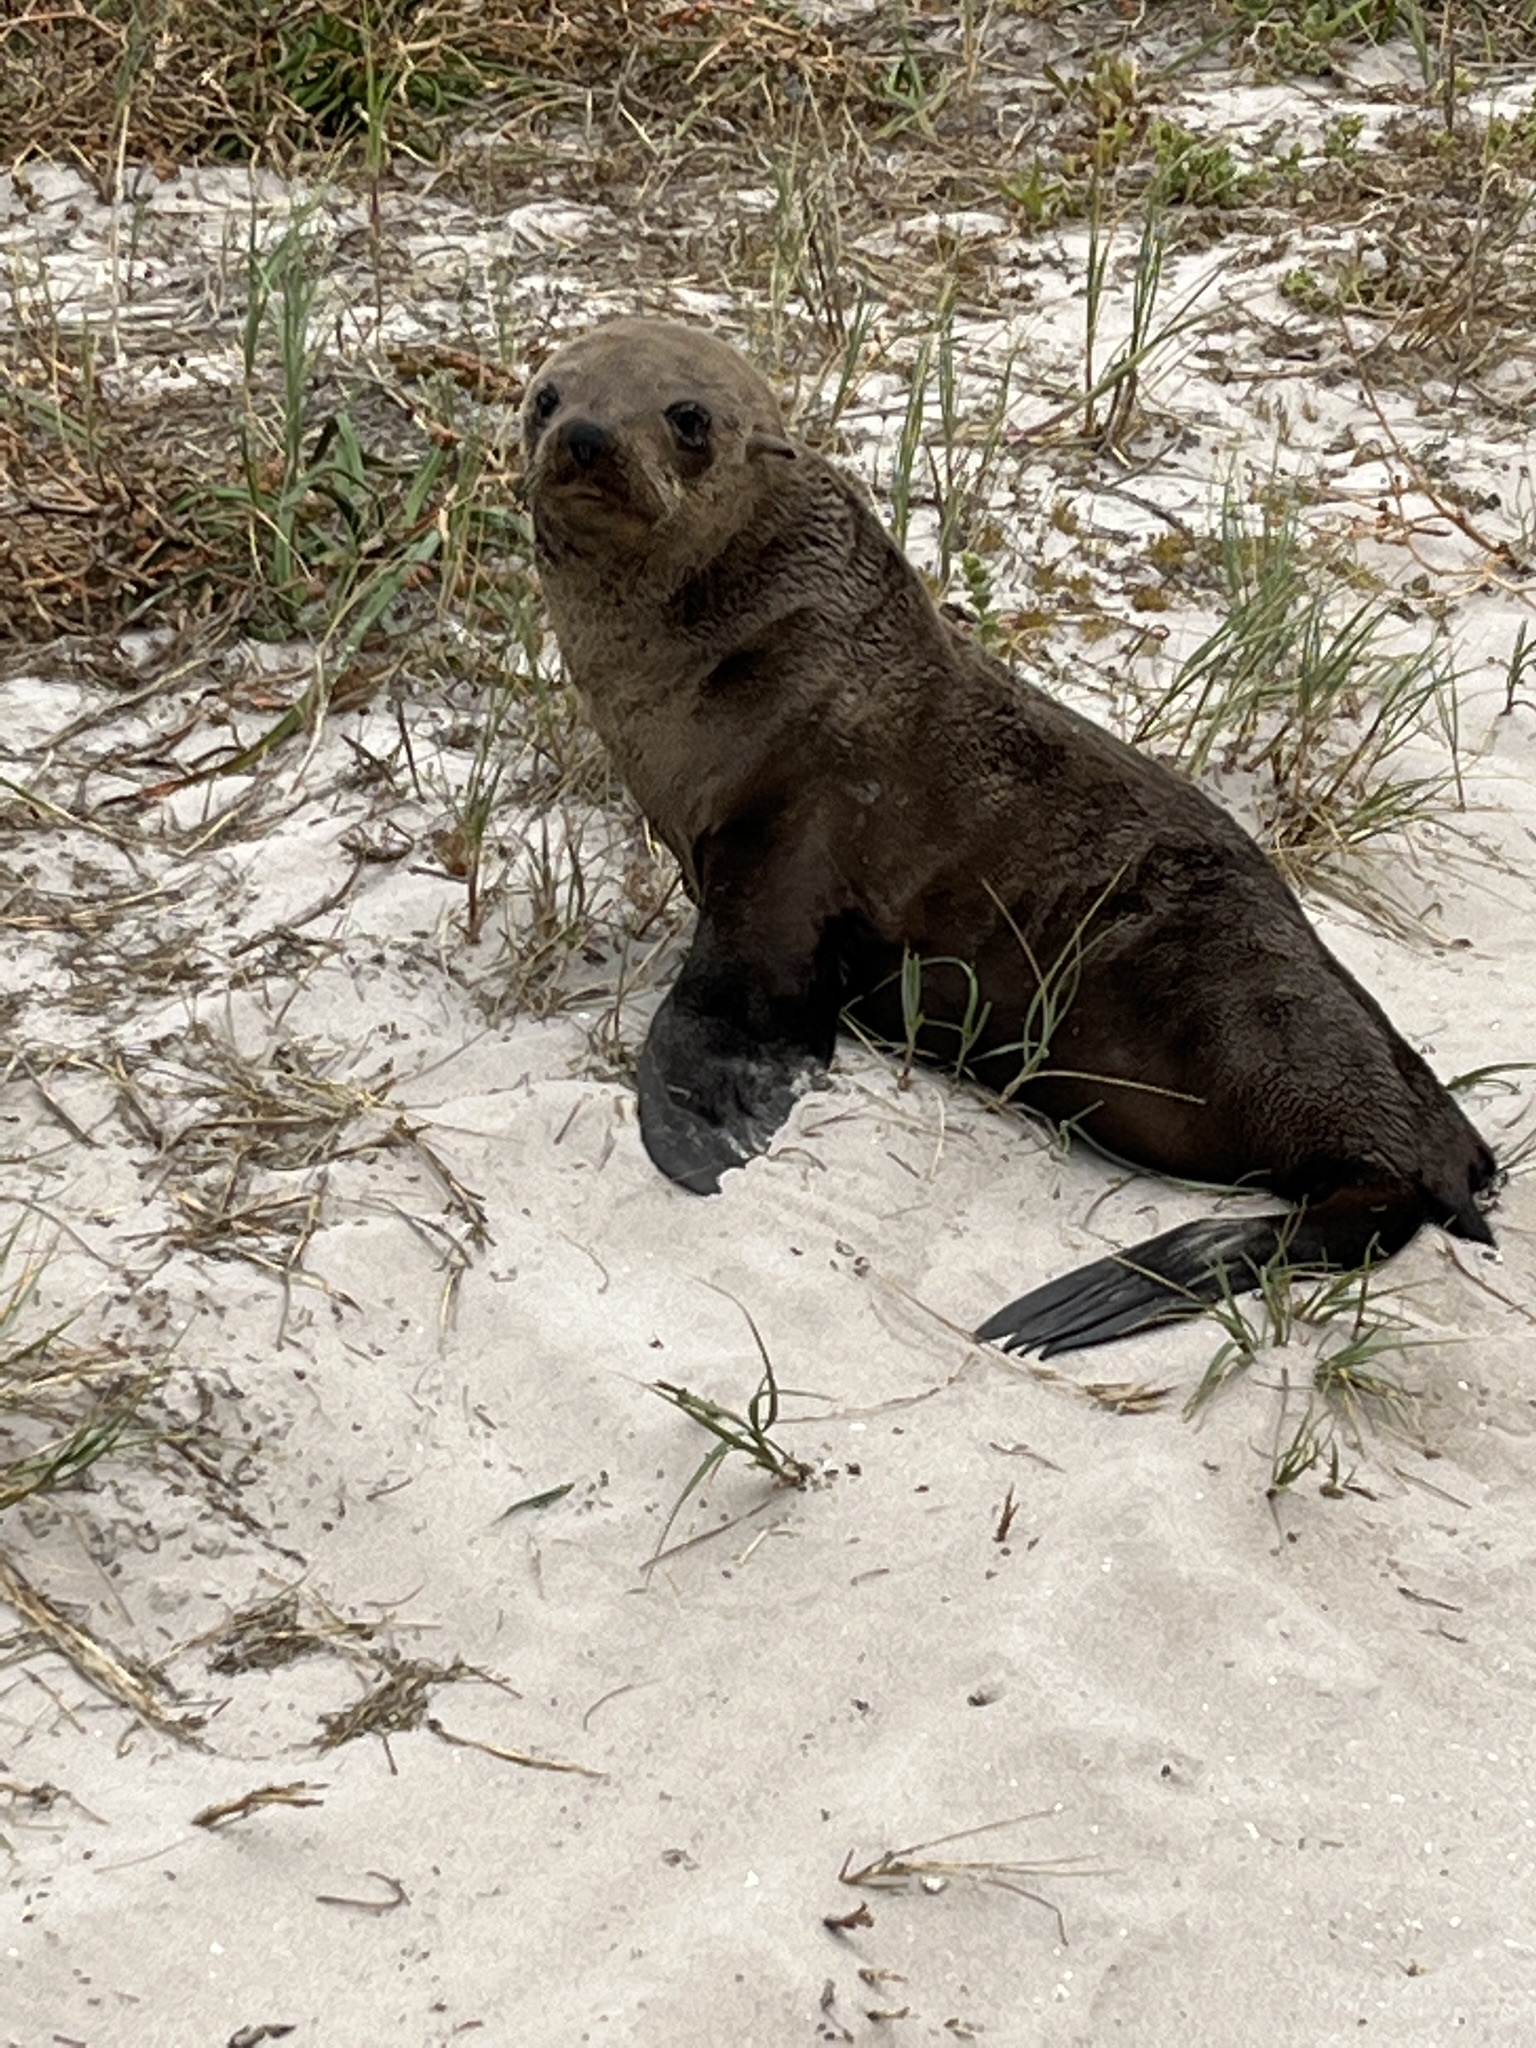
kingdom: Animalia
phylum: Chordata
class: Mammalia
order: Carnivora
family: Otariidae
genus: Arctocephalus
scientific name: Arctocephalus pusillus
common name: Brown fur seal
